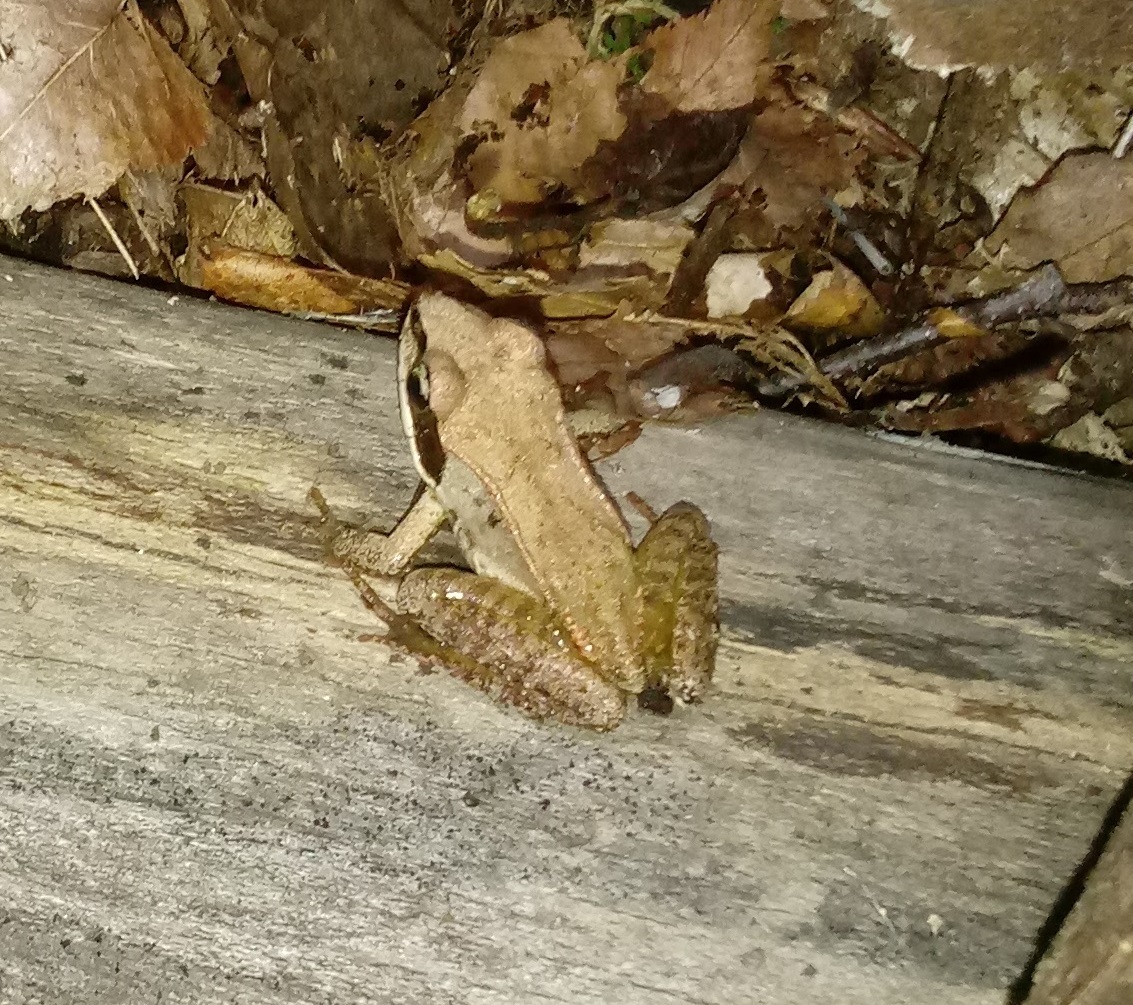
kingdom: Animalia
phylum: Chordata
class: Amphibia
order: Anura
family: Ranidae
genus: Lithobates
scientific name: Lithobates sylvaticus
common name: Wood frog
